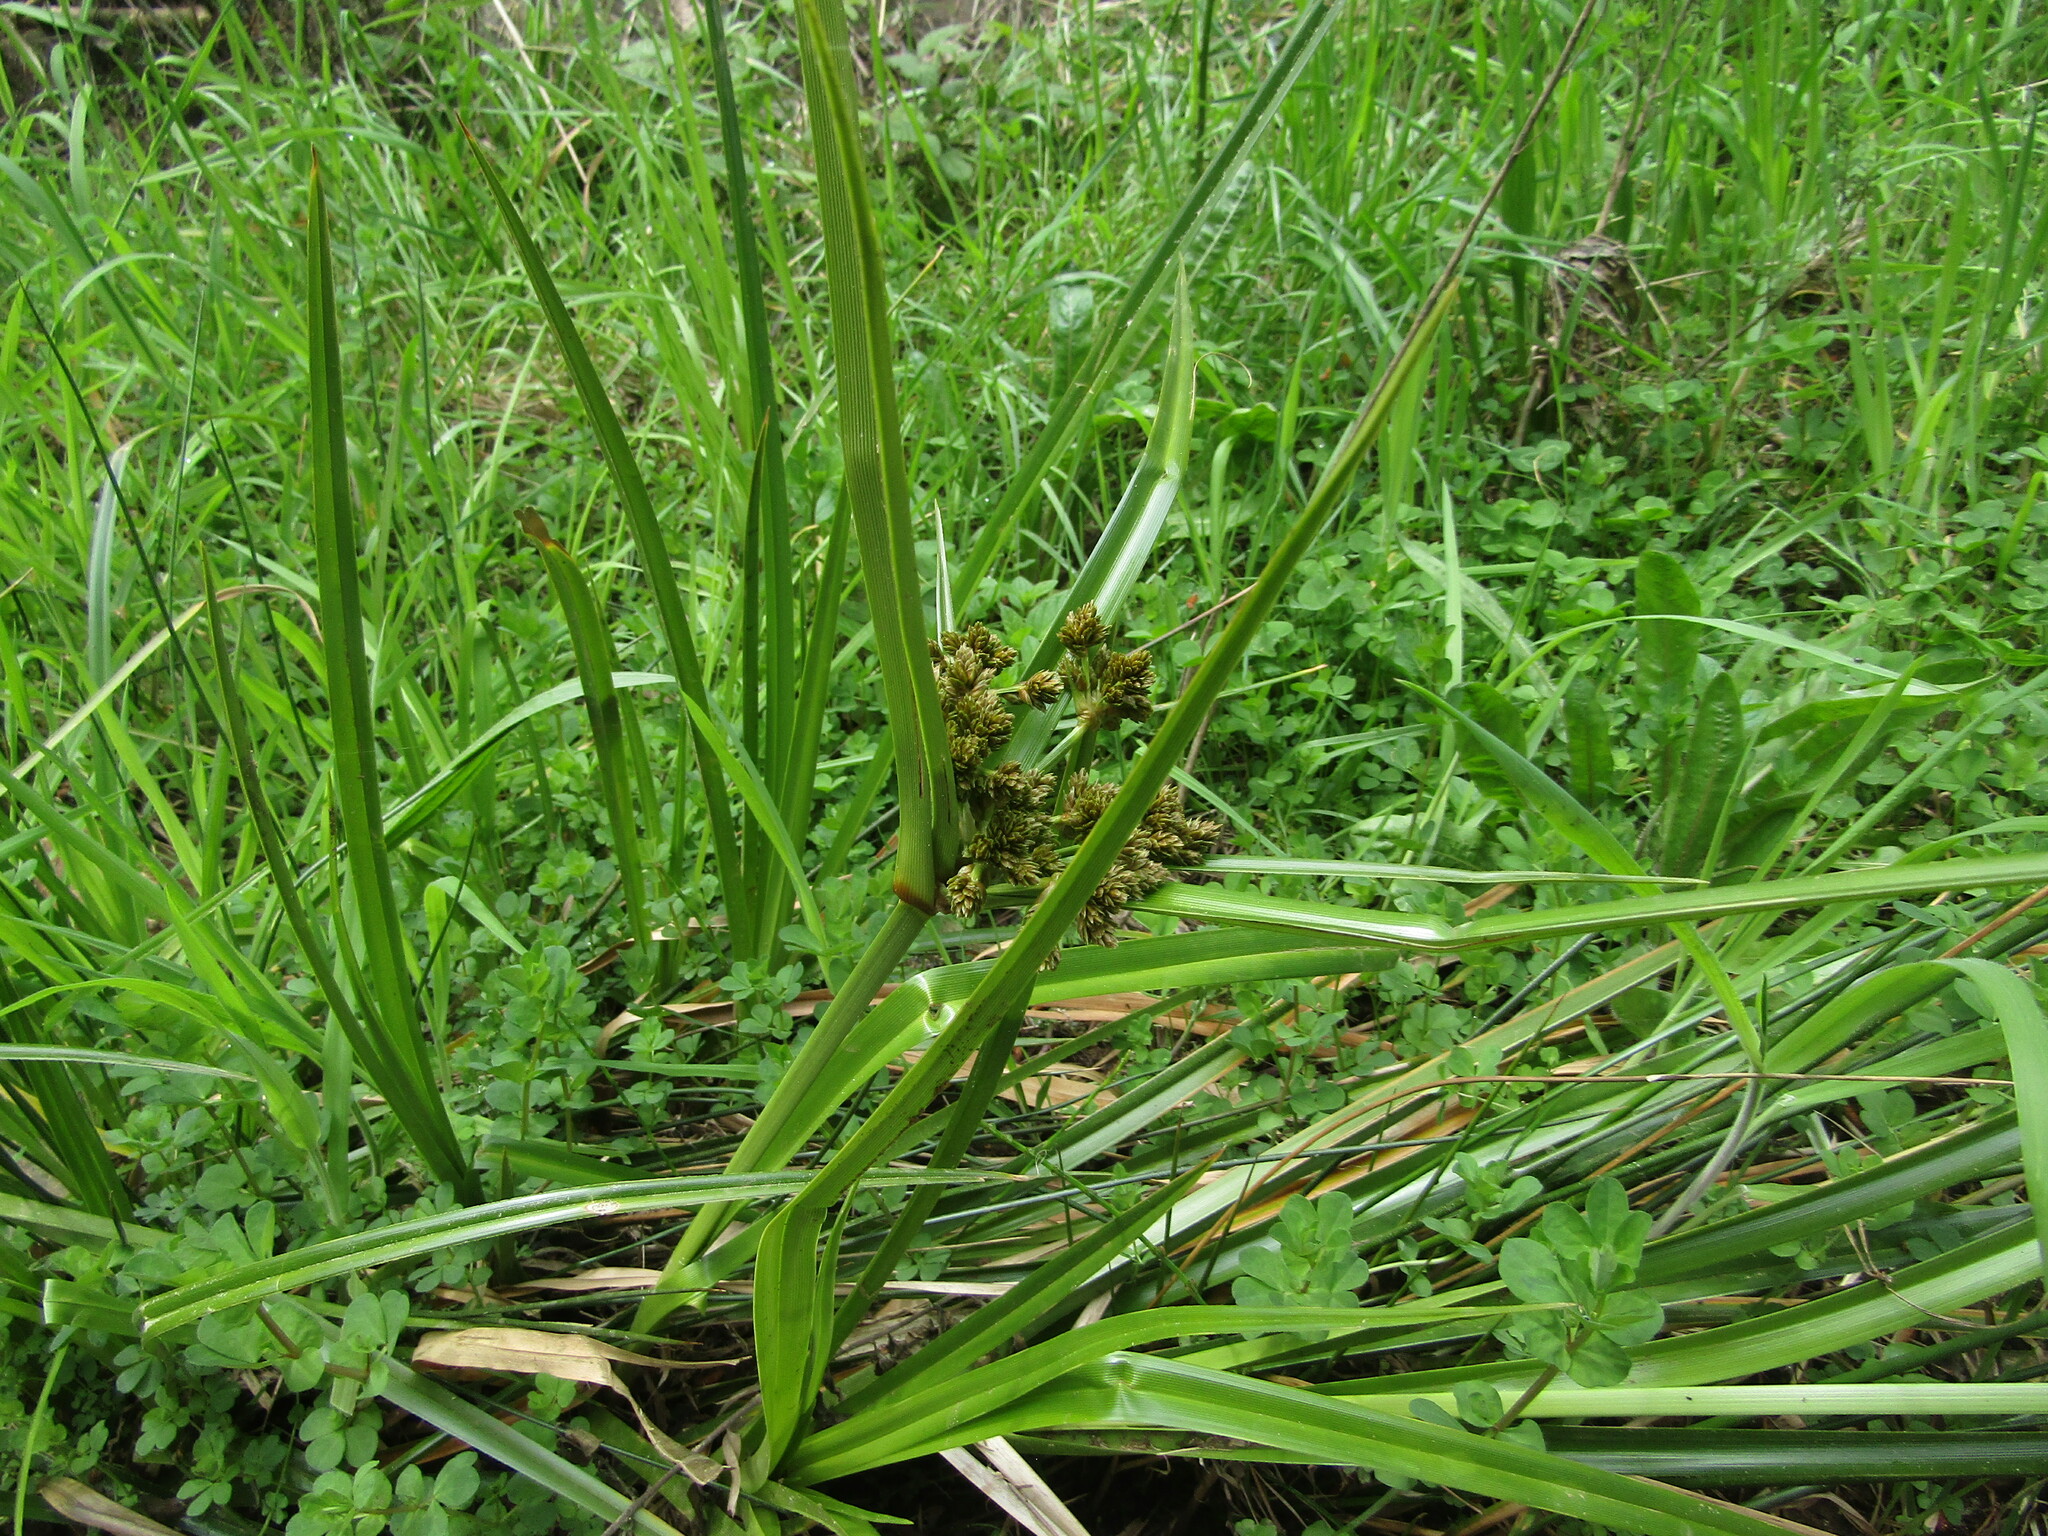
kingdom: Plantae
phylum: Tracheophyta
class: Liliopsida
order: Poales
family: Cyperaceae
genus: Cyperus
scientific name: Cyperus eragrostis
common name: Tall flatsedge
